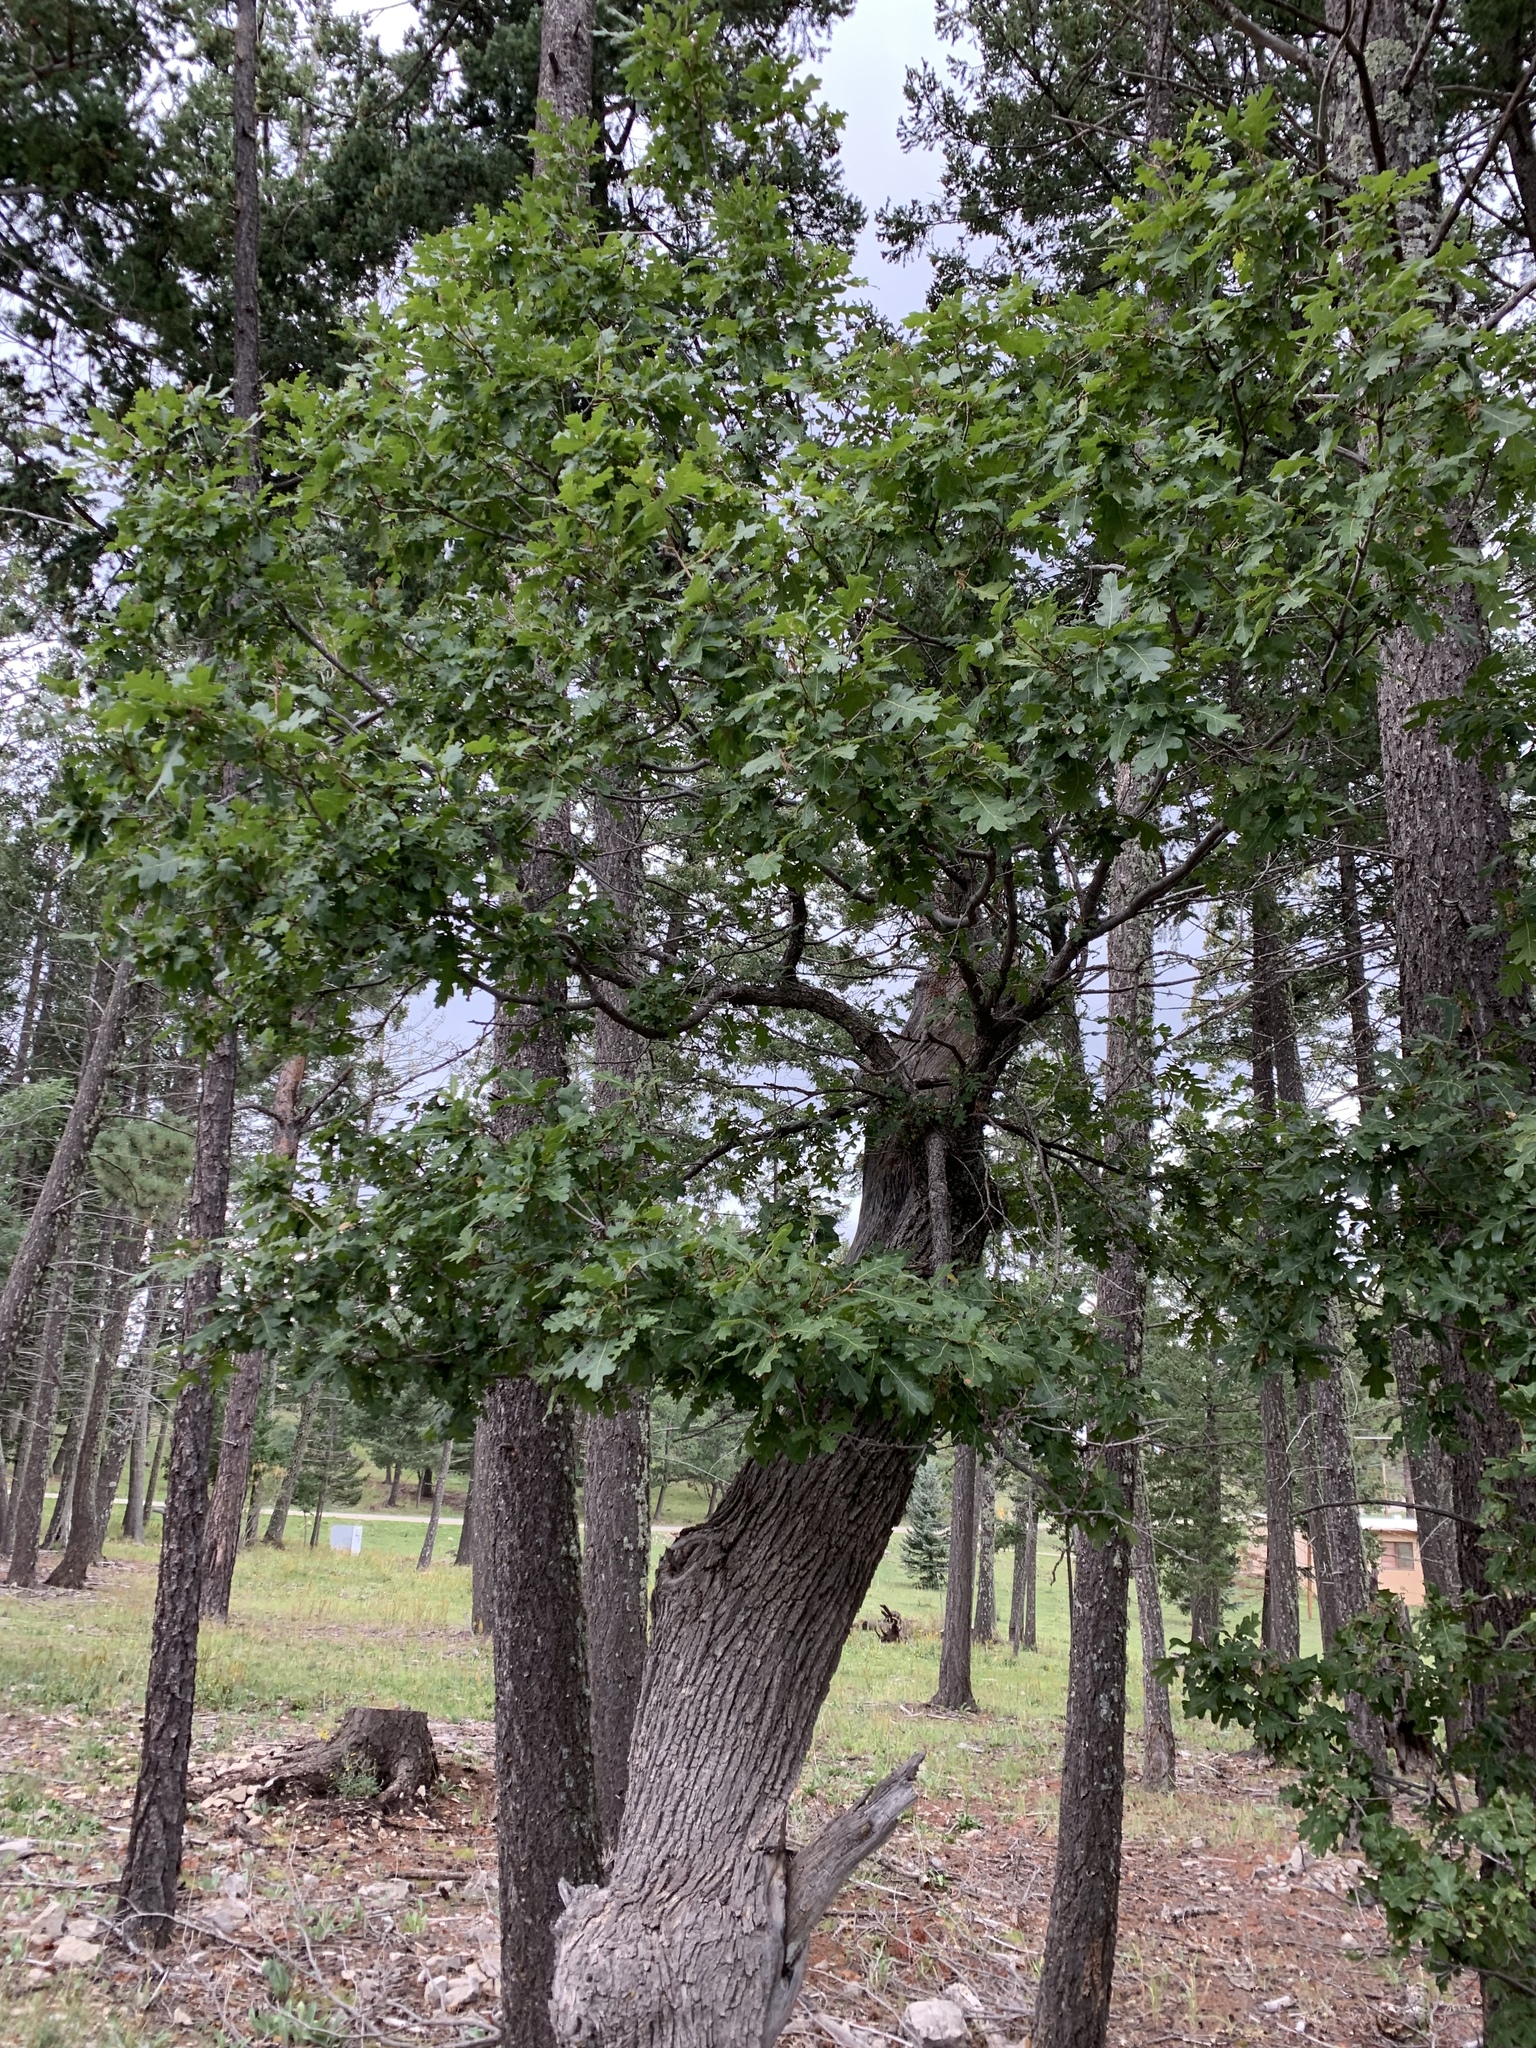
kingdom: Plantae
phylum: Tracheophyta
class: Magnoliopsida
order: Fagales
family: Fagaceae
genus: Quercus
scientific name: Quercus gambelii
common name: Gambel oak
